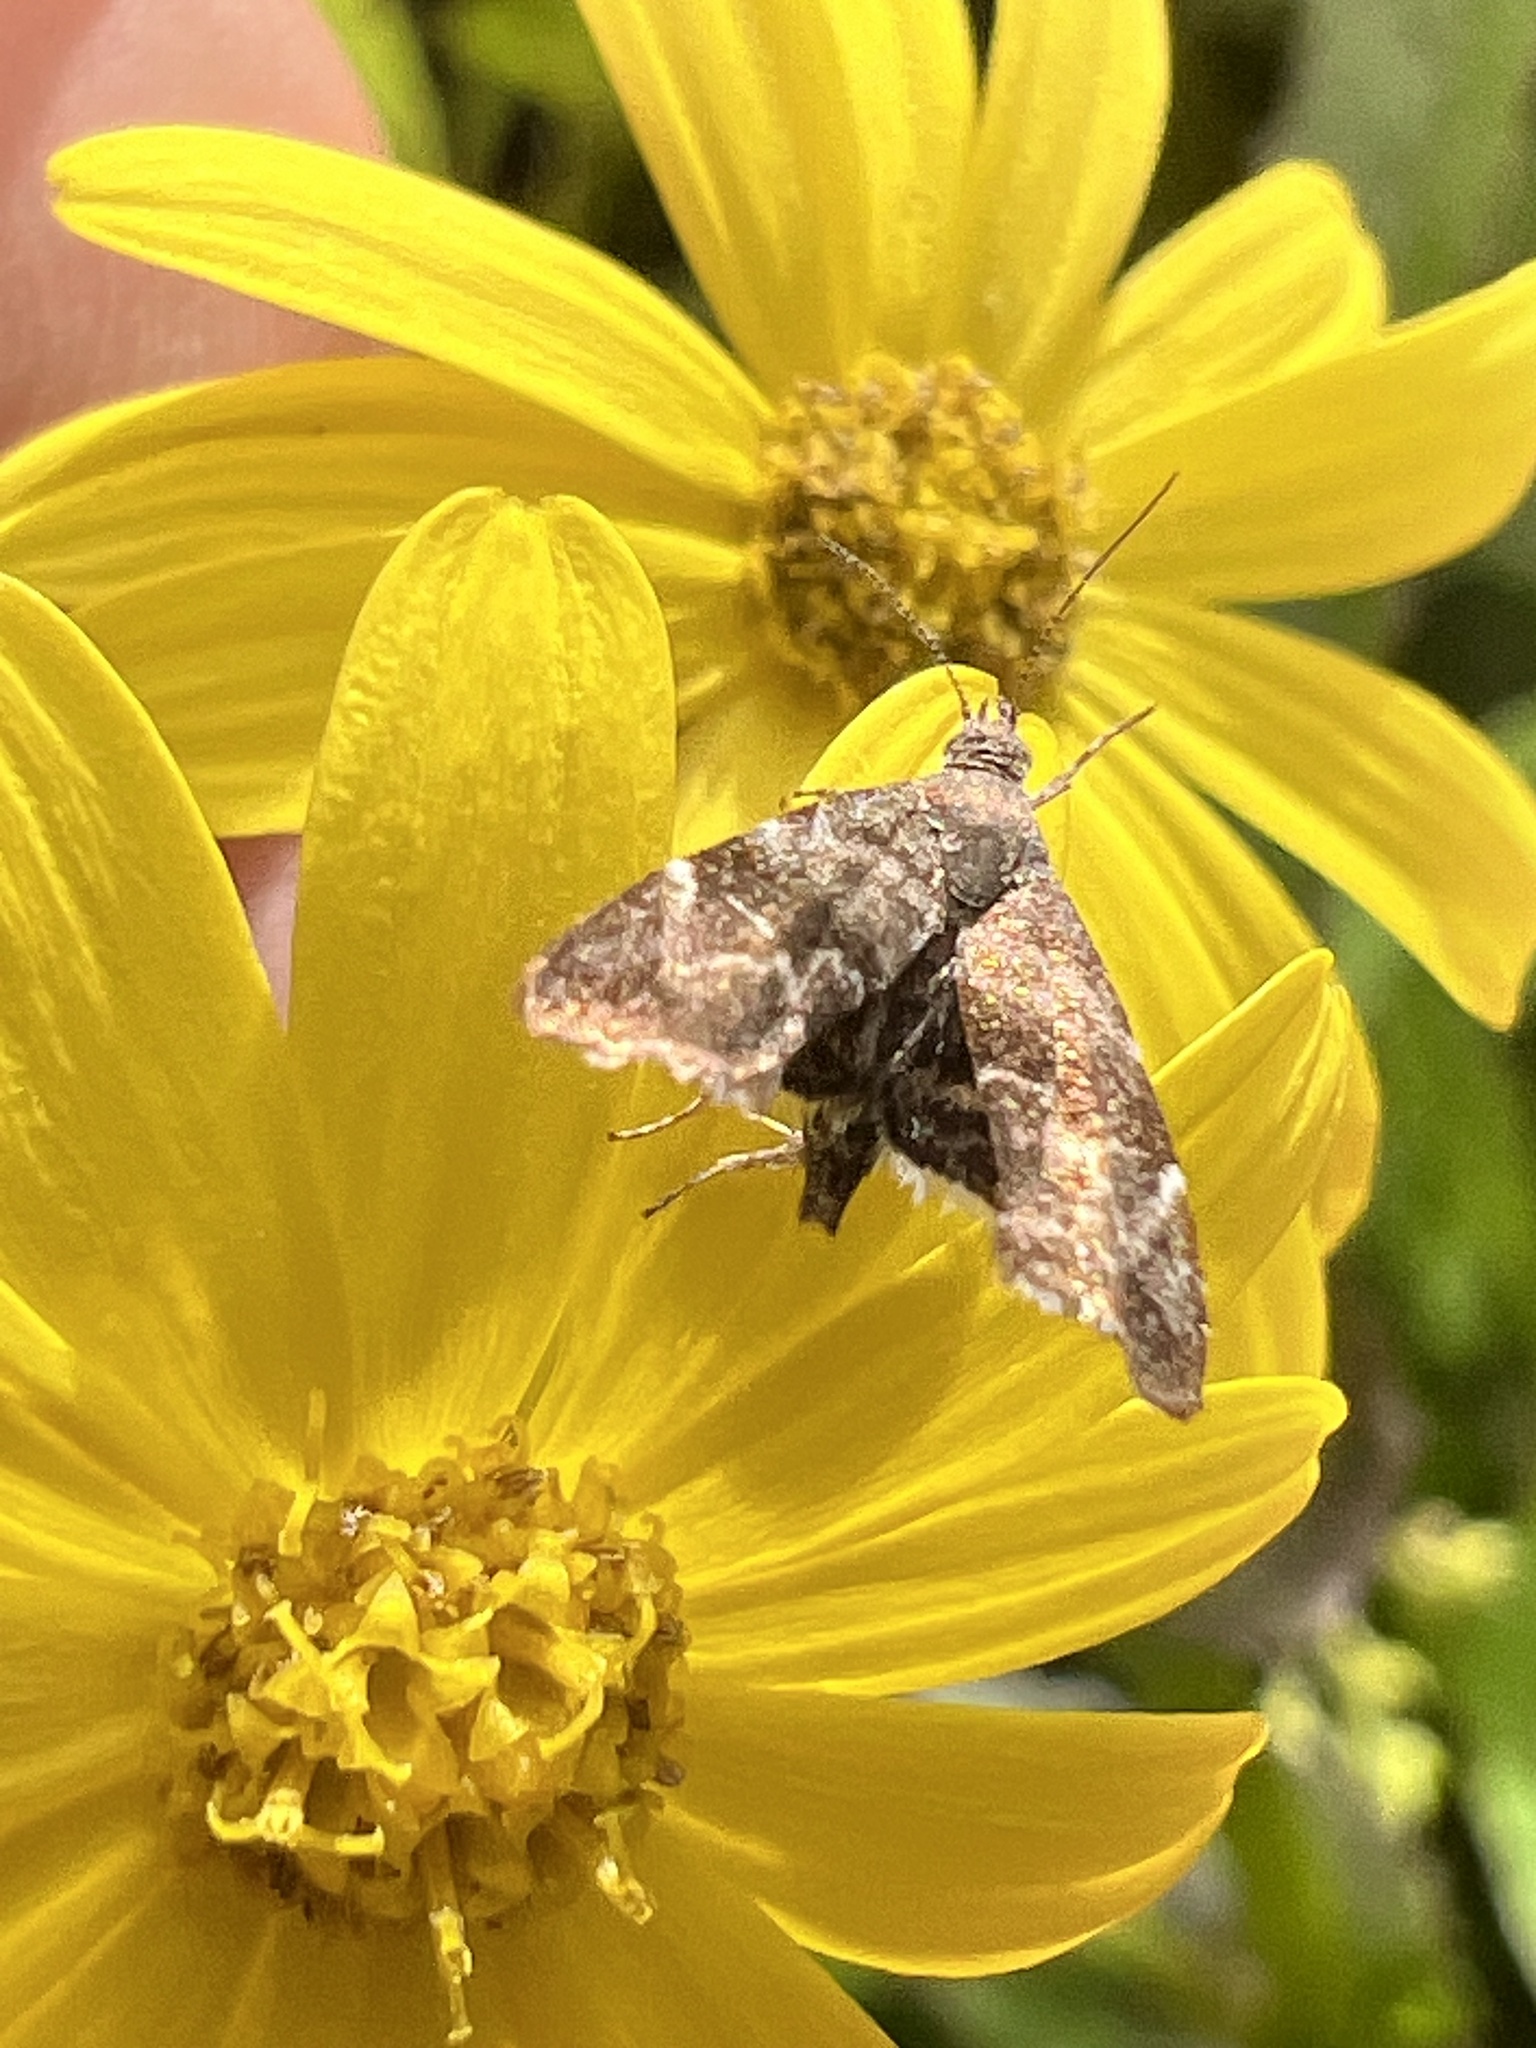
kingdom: Animalia
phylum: Arthropoda
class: Insecta
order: Lepidoptera
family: Choreutidae
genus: Asterivora
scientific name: Asterivora colpota
